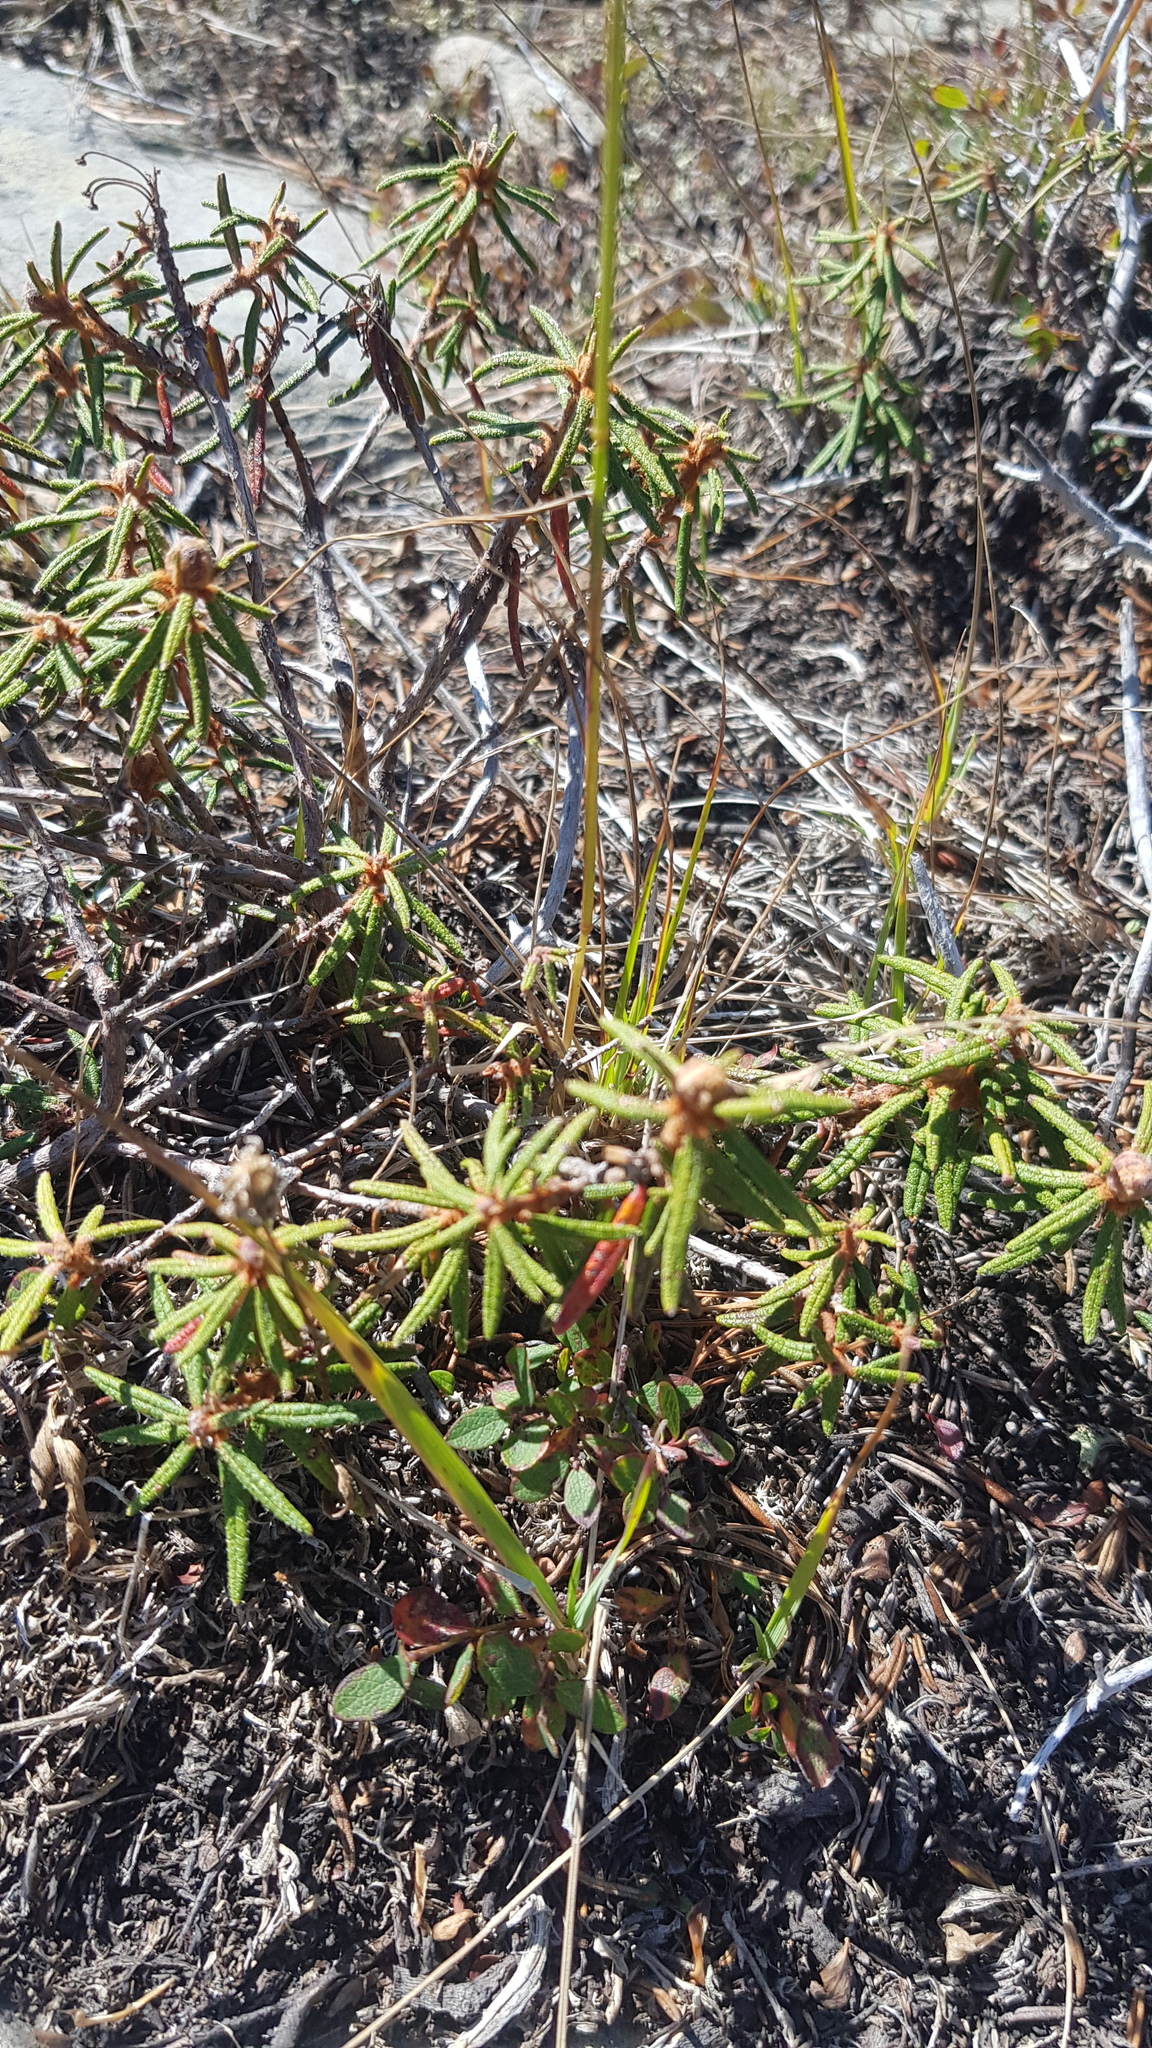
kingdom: Plantae
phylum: Tracheophyta
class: Magnoliopsida
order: Ericales
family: Ericaceae
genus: Rhododendron
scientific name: Rhododendron tomentosum
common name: Marsh labrador tea
